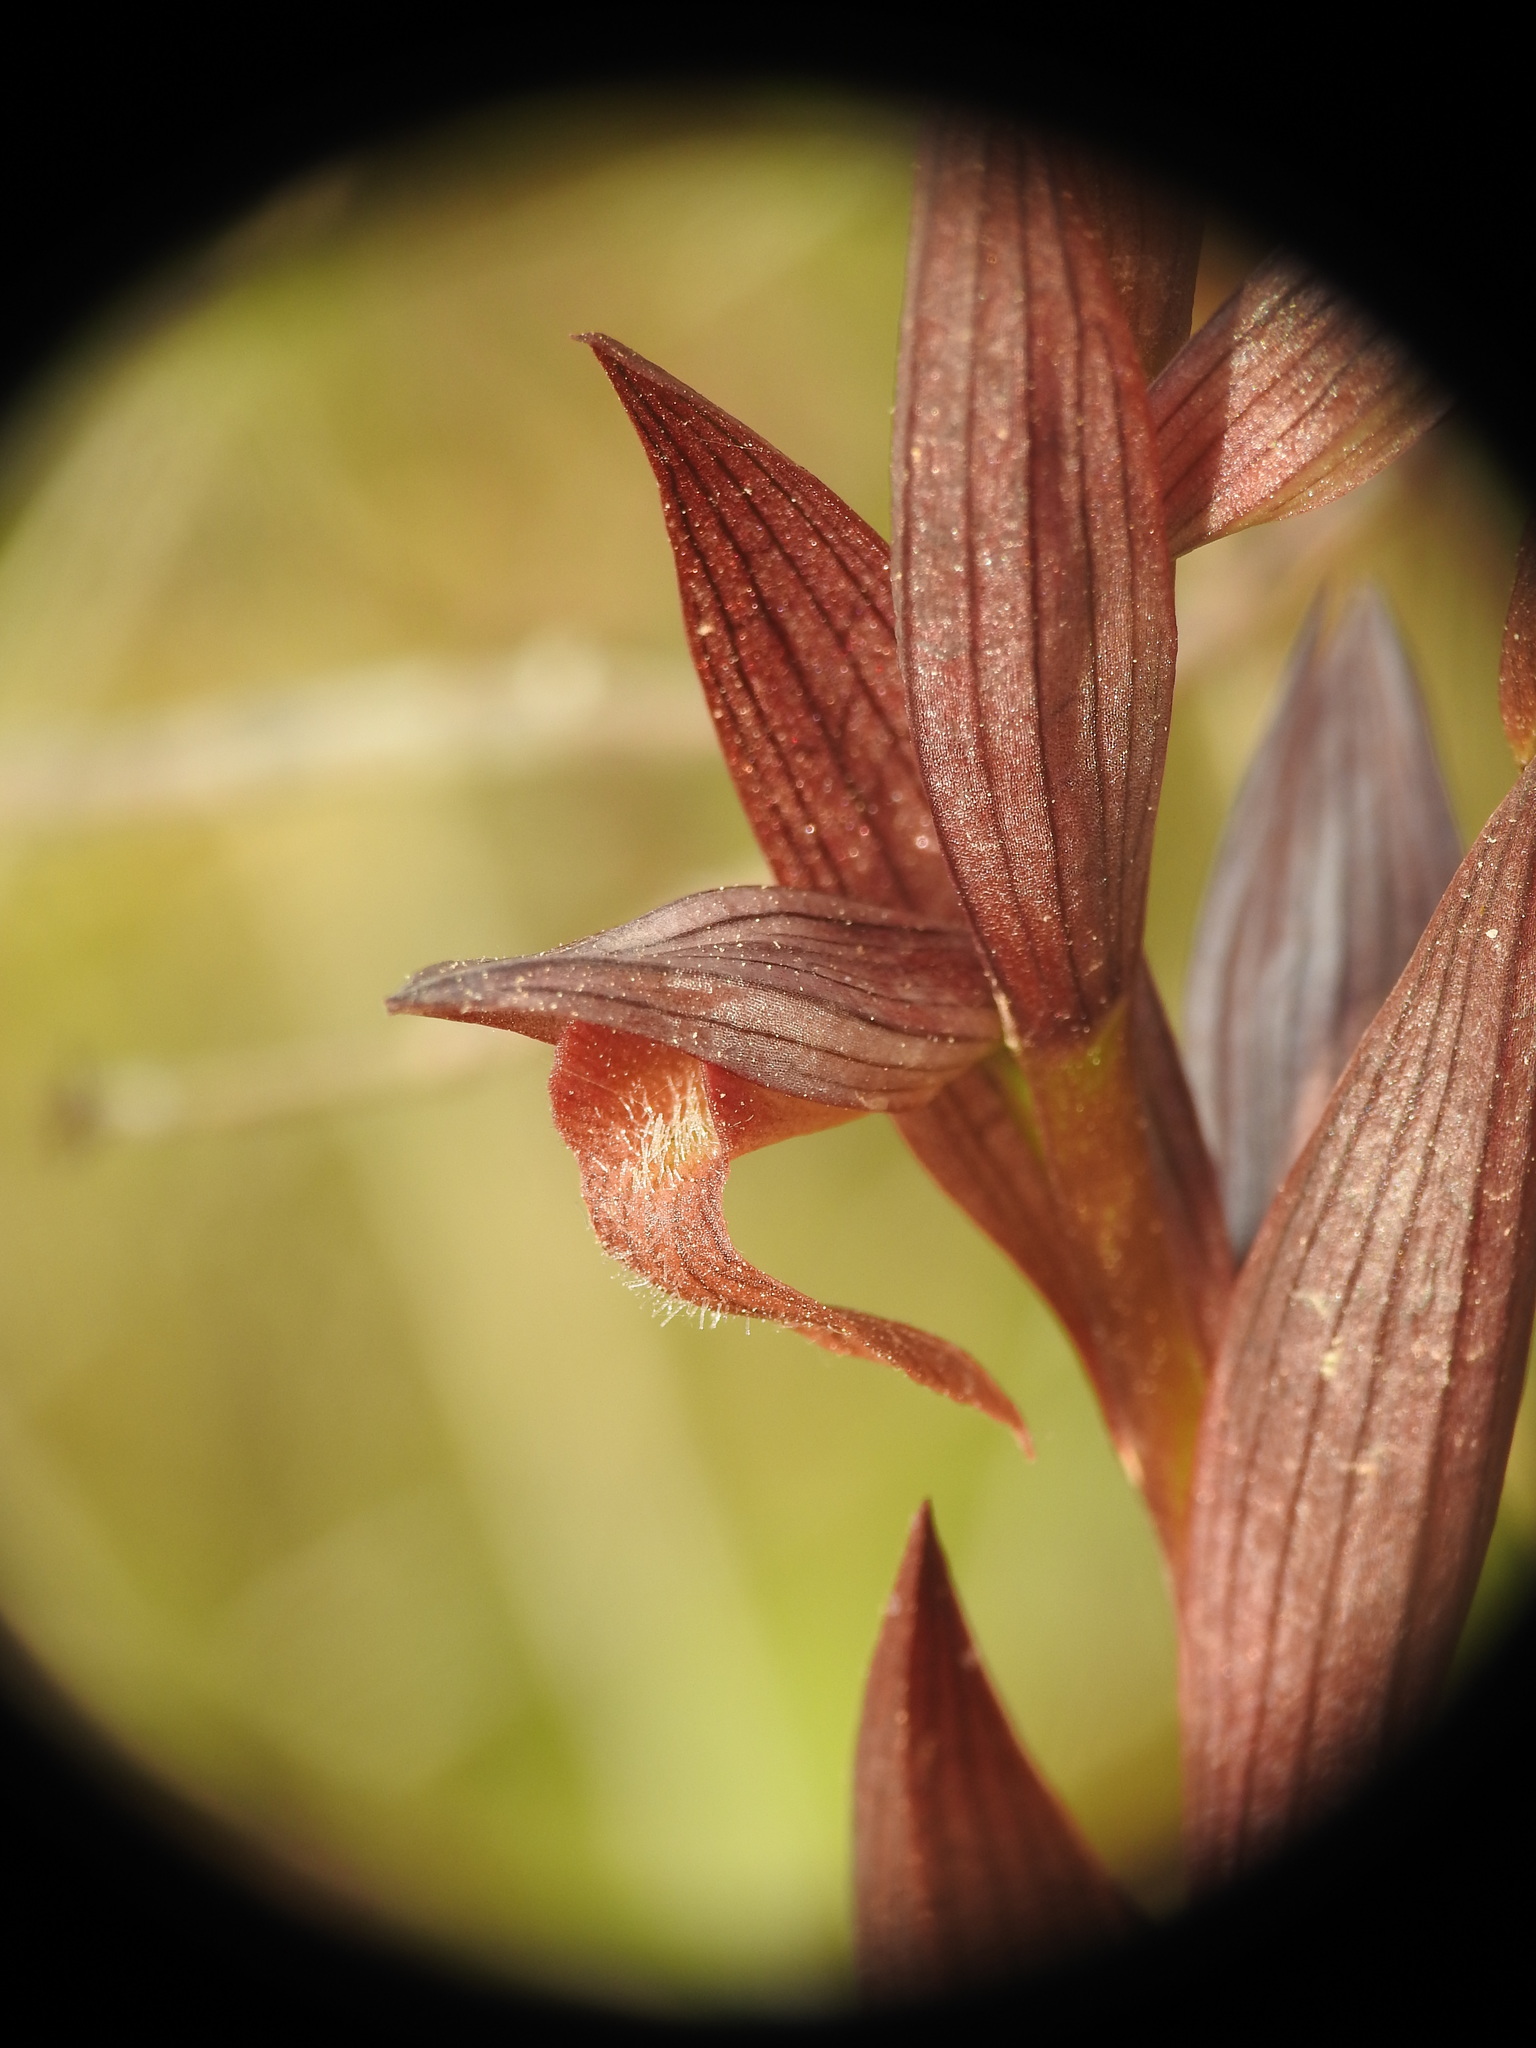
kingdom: Plantae
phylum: Tracheophyta
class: Liliopsida
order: Asparagales
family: Orchidaceae
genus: Serapias
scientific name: Serapias bergonii
